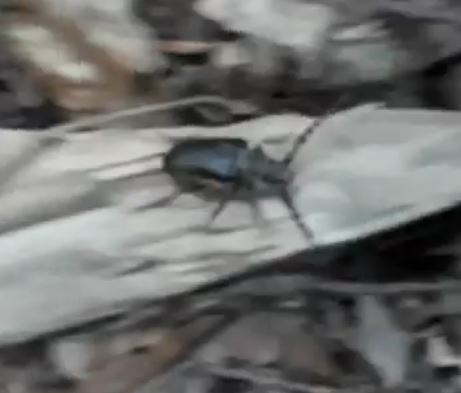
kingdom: Animalia
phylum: Arthropoda
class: Insecta
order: Coleoptera
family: Cerambycidae
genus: Prionus
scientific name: Prionus coriarius
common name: Tanner beetle
